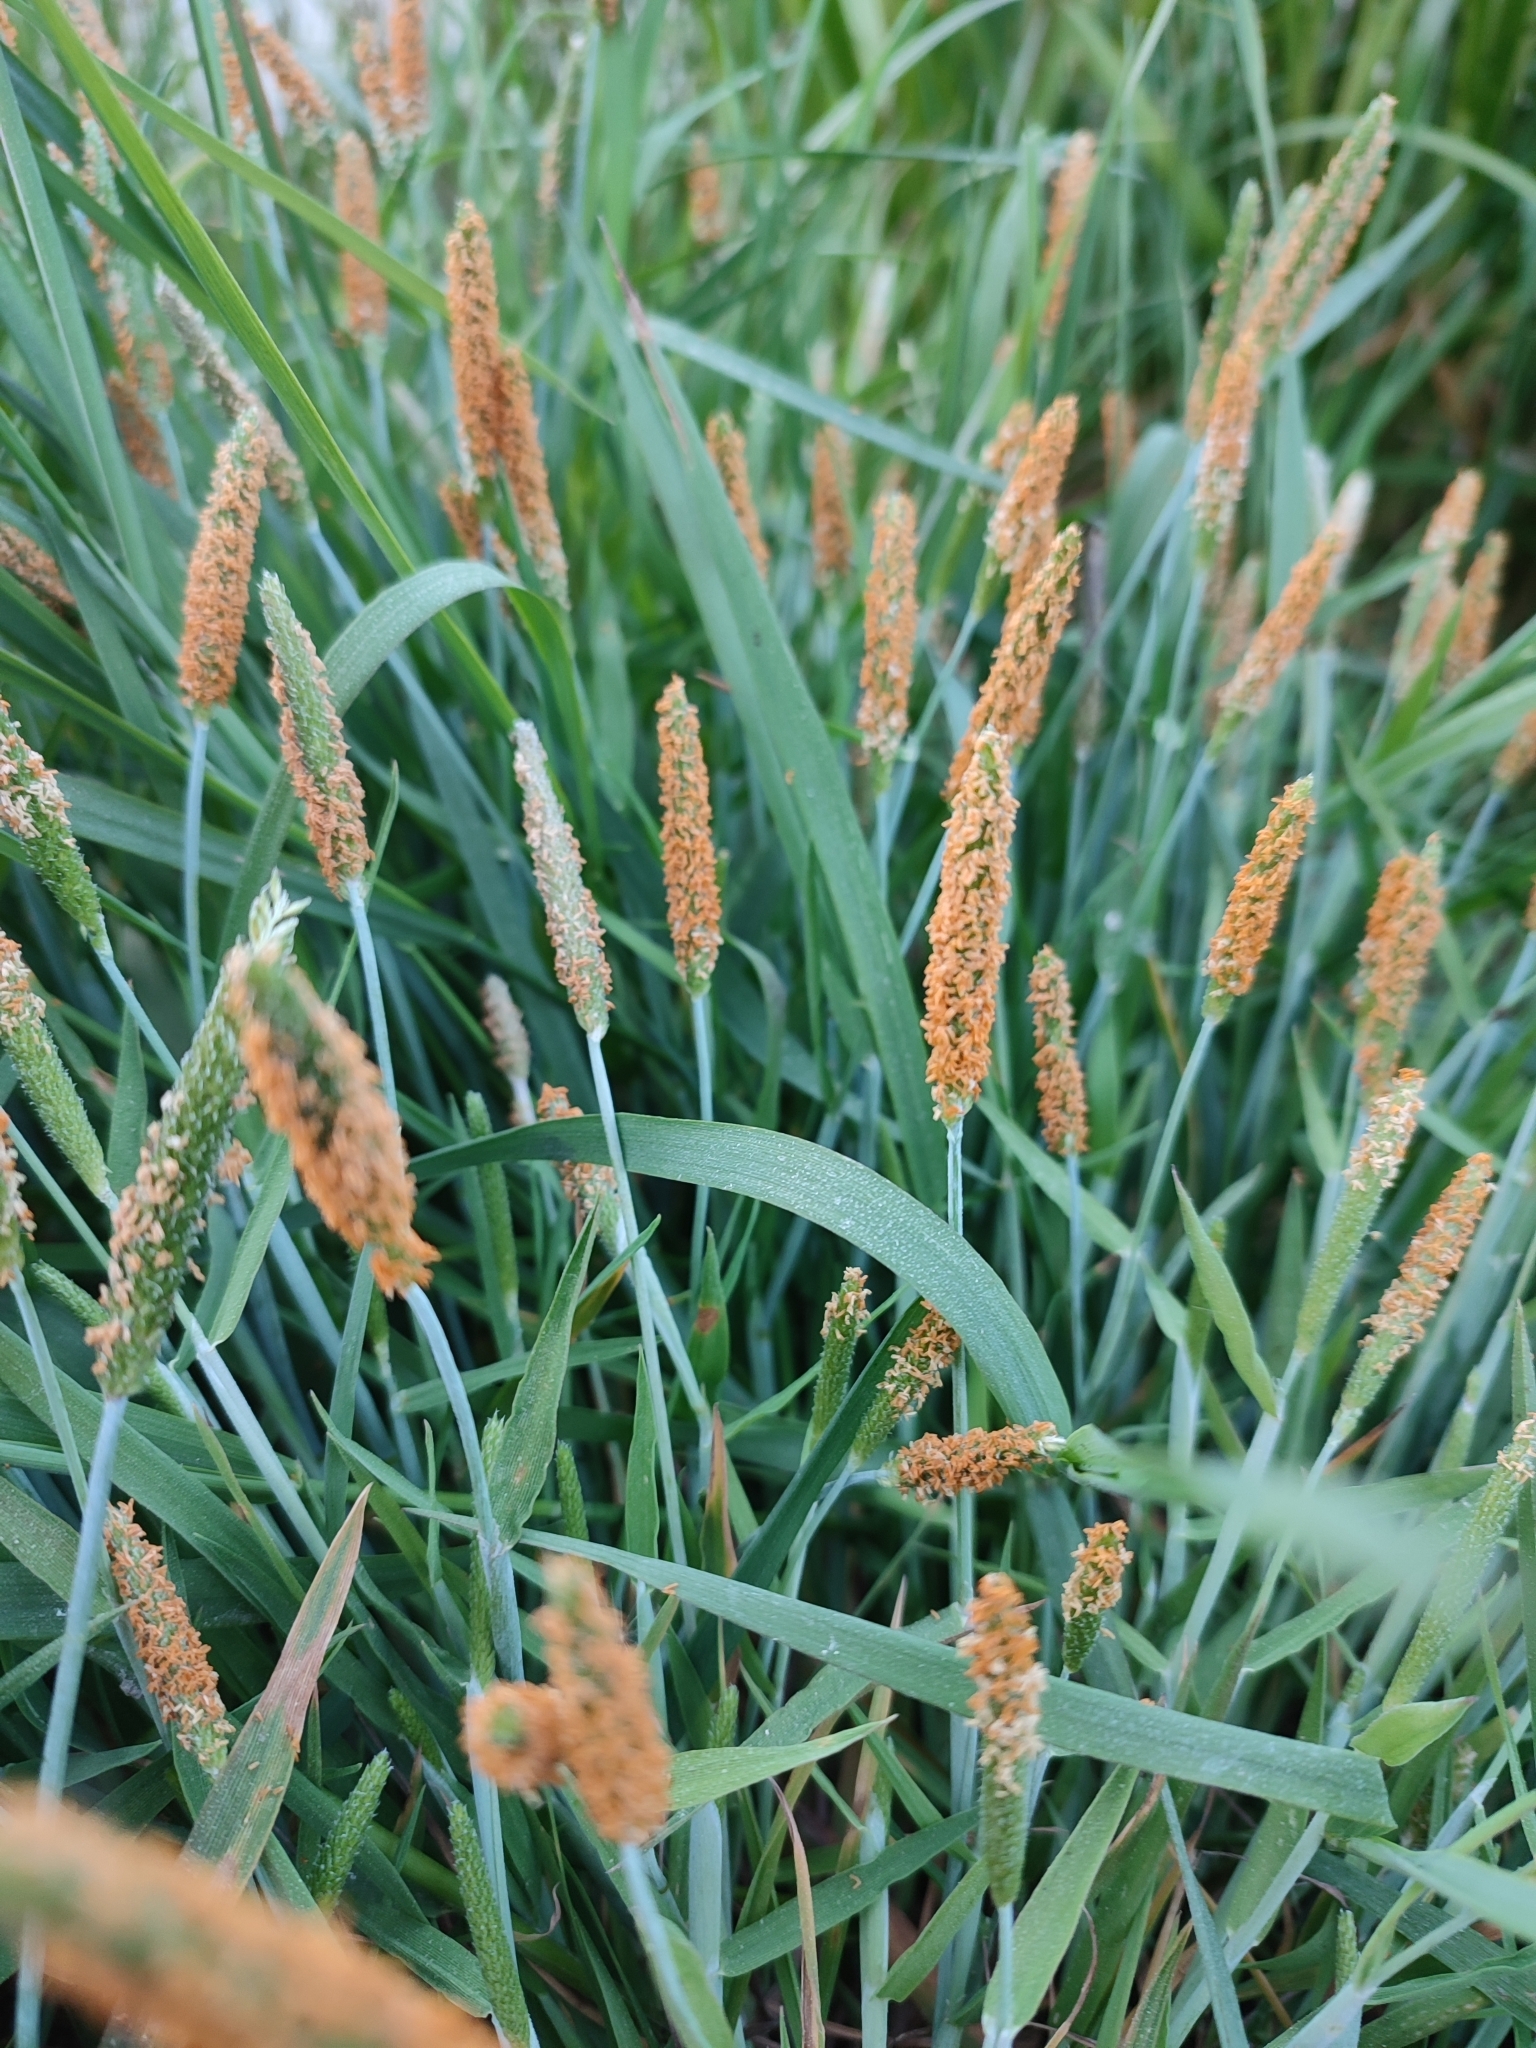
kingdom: Plantae
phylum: Tracheophyta
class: Liliopsida
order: Poales
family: Poaceae
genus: Alopecurus
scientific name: Alopecurus aequalis
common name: Orange foxtail
